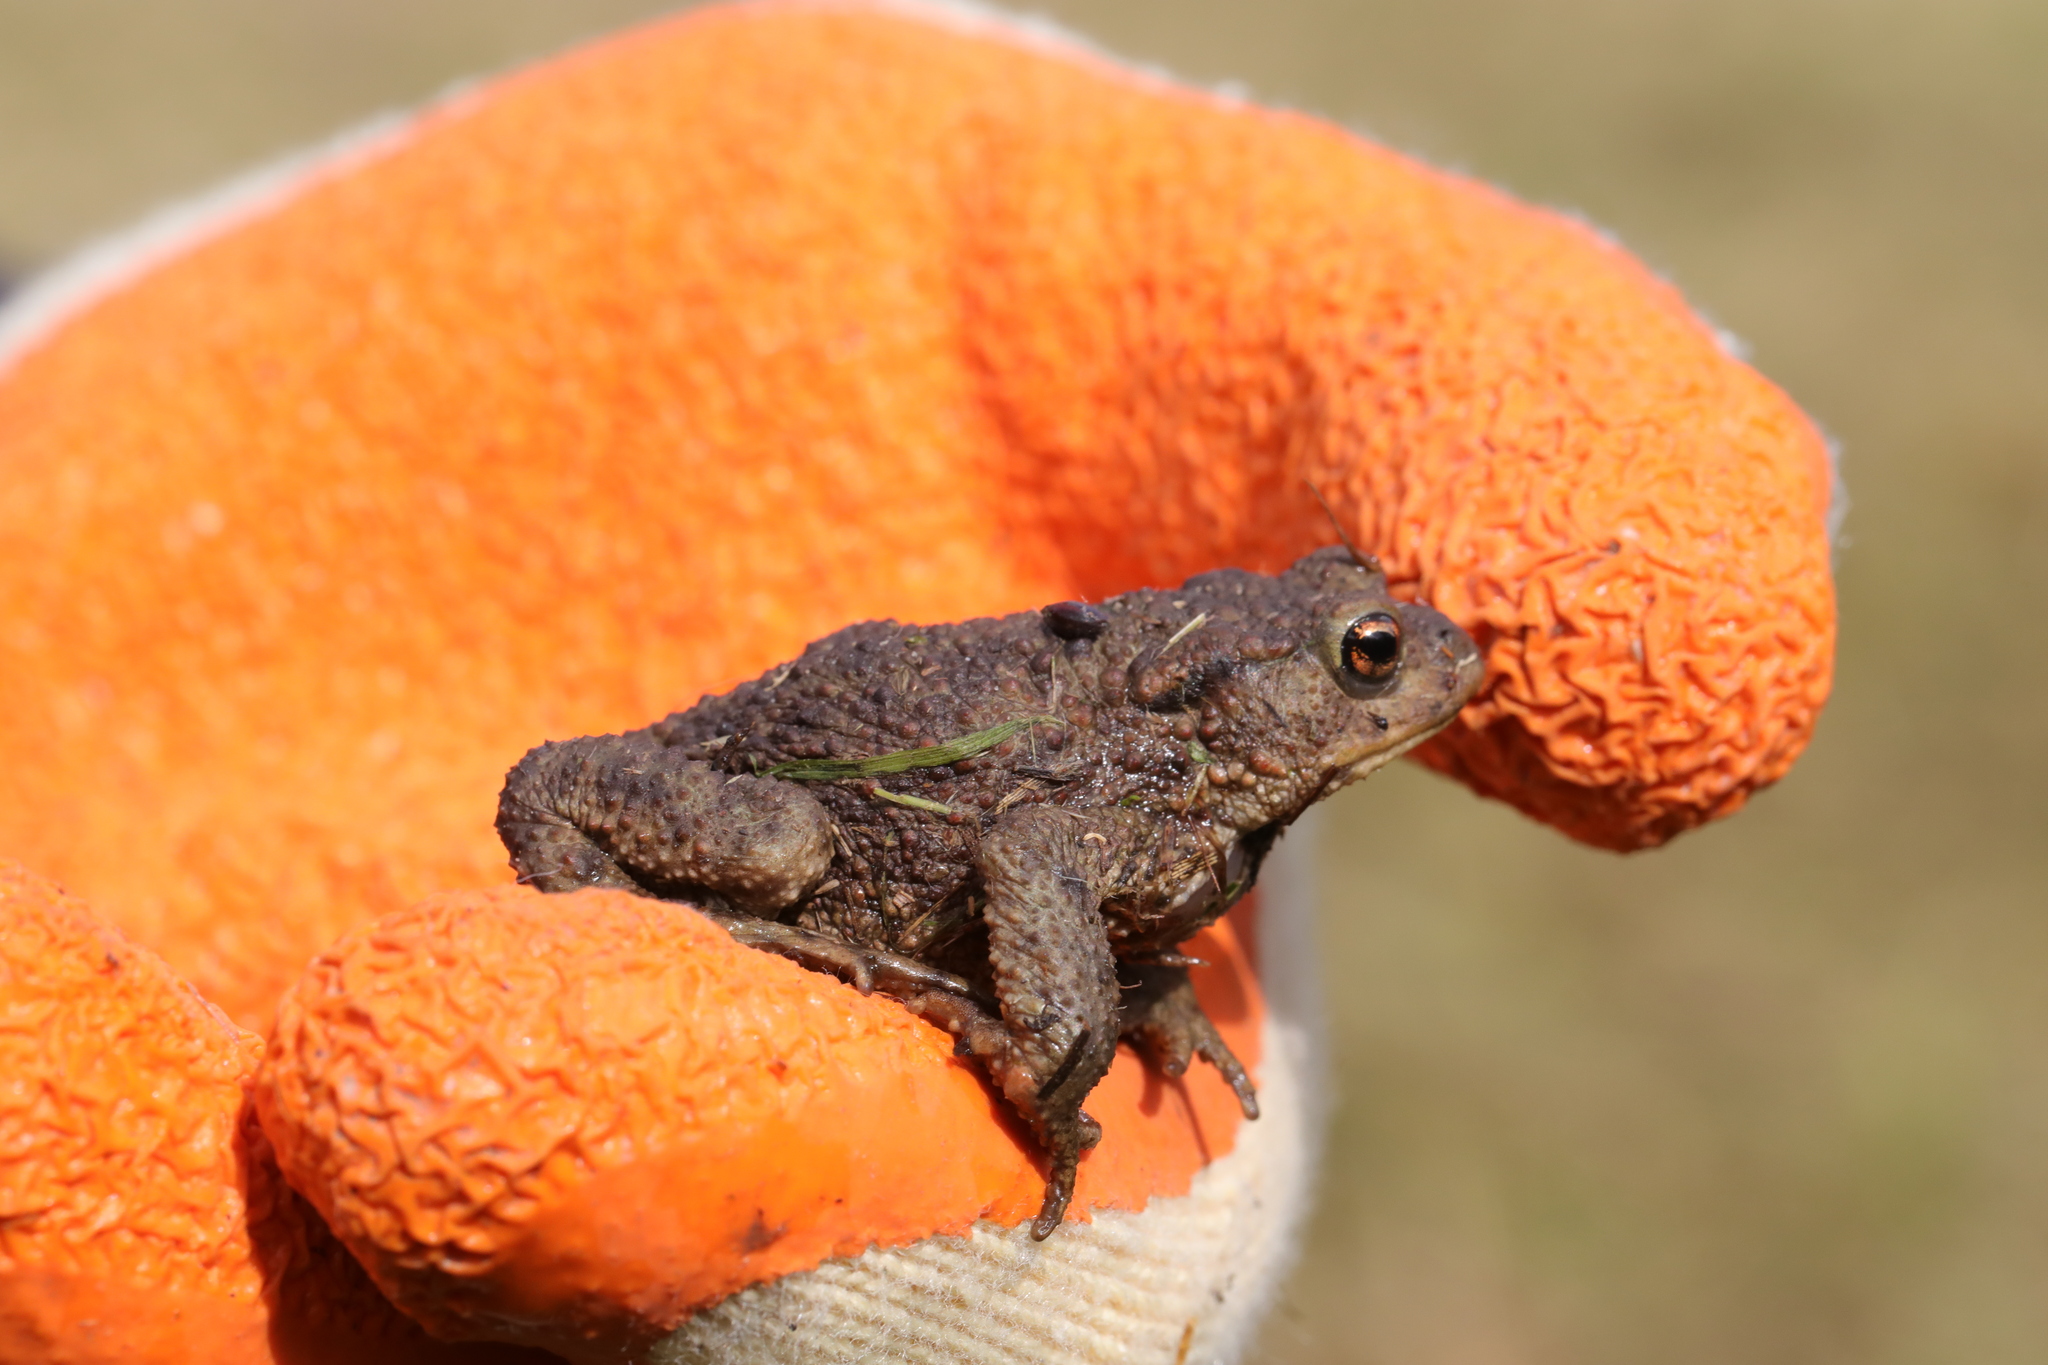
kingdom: Animalia
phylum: Chordata
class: Amphibia
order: Anura
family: Bufonidae
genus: Bufo
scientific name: Bufo bufo
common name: Common toad
